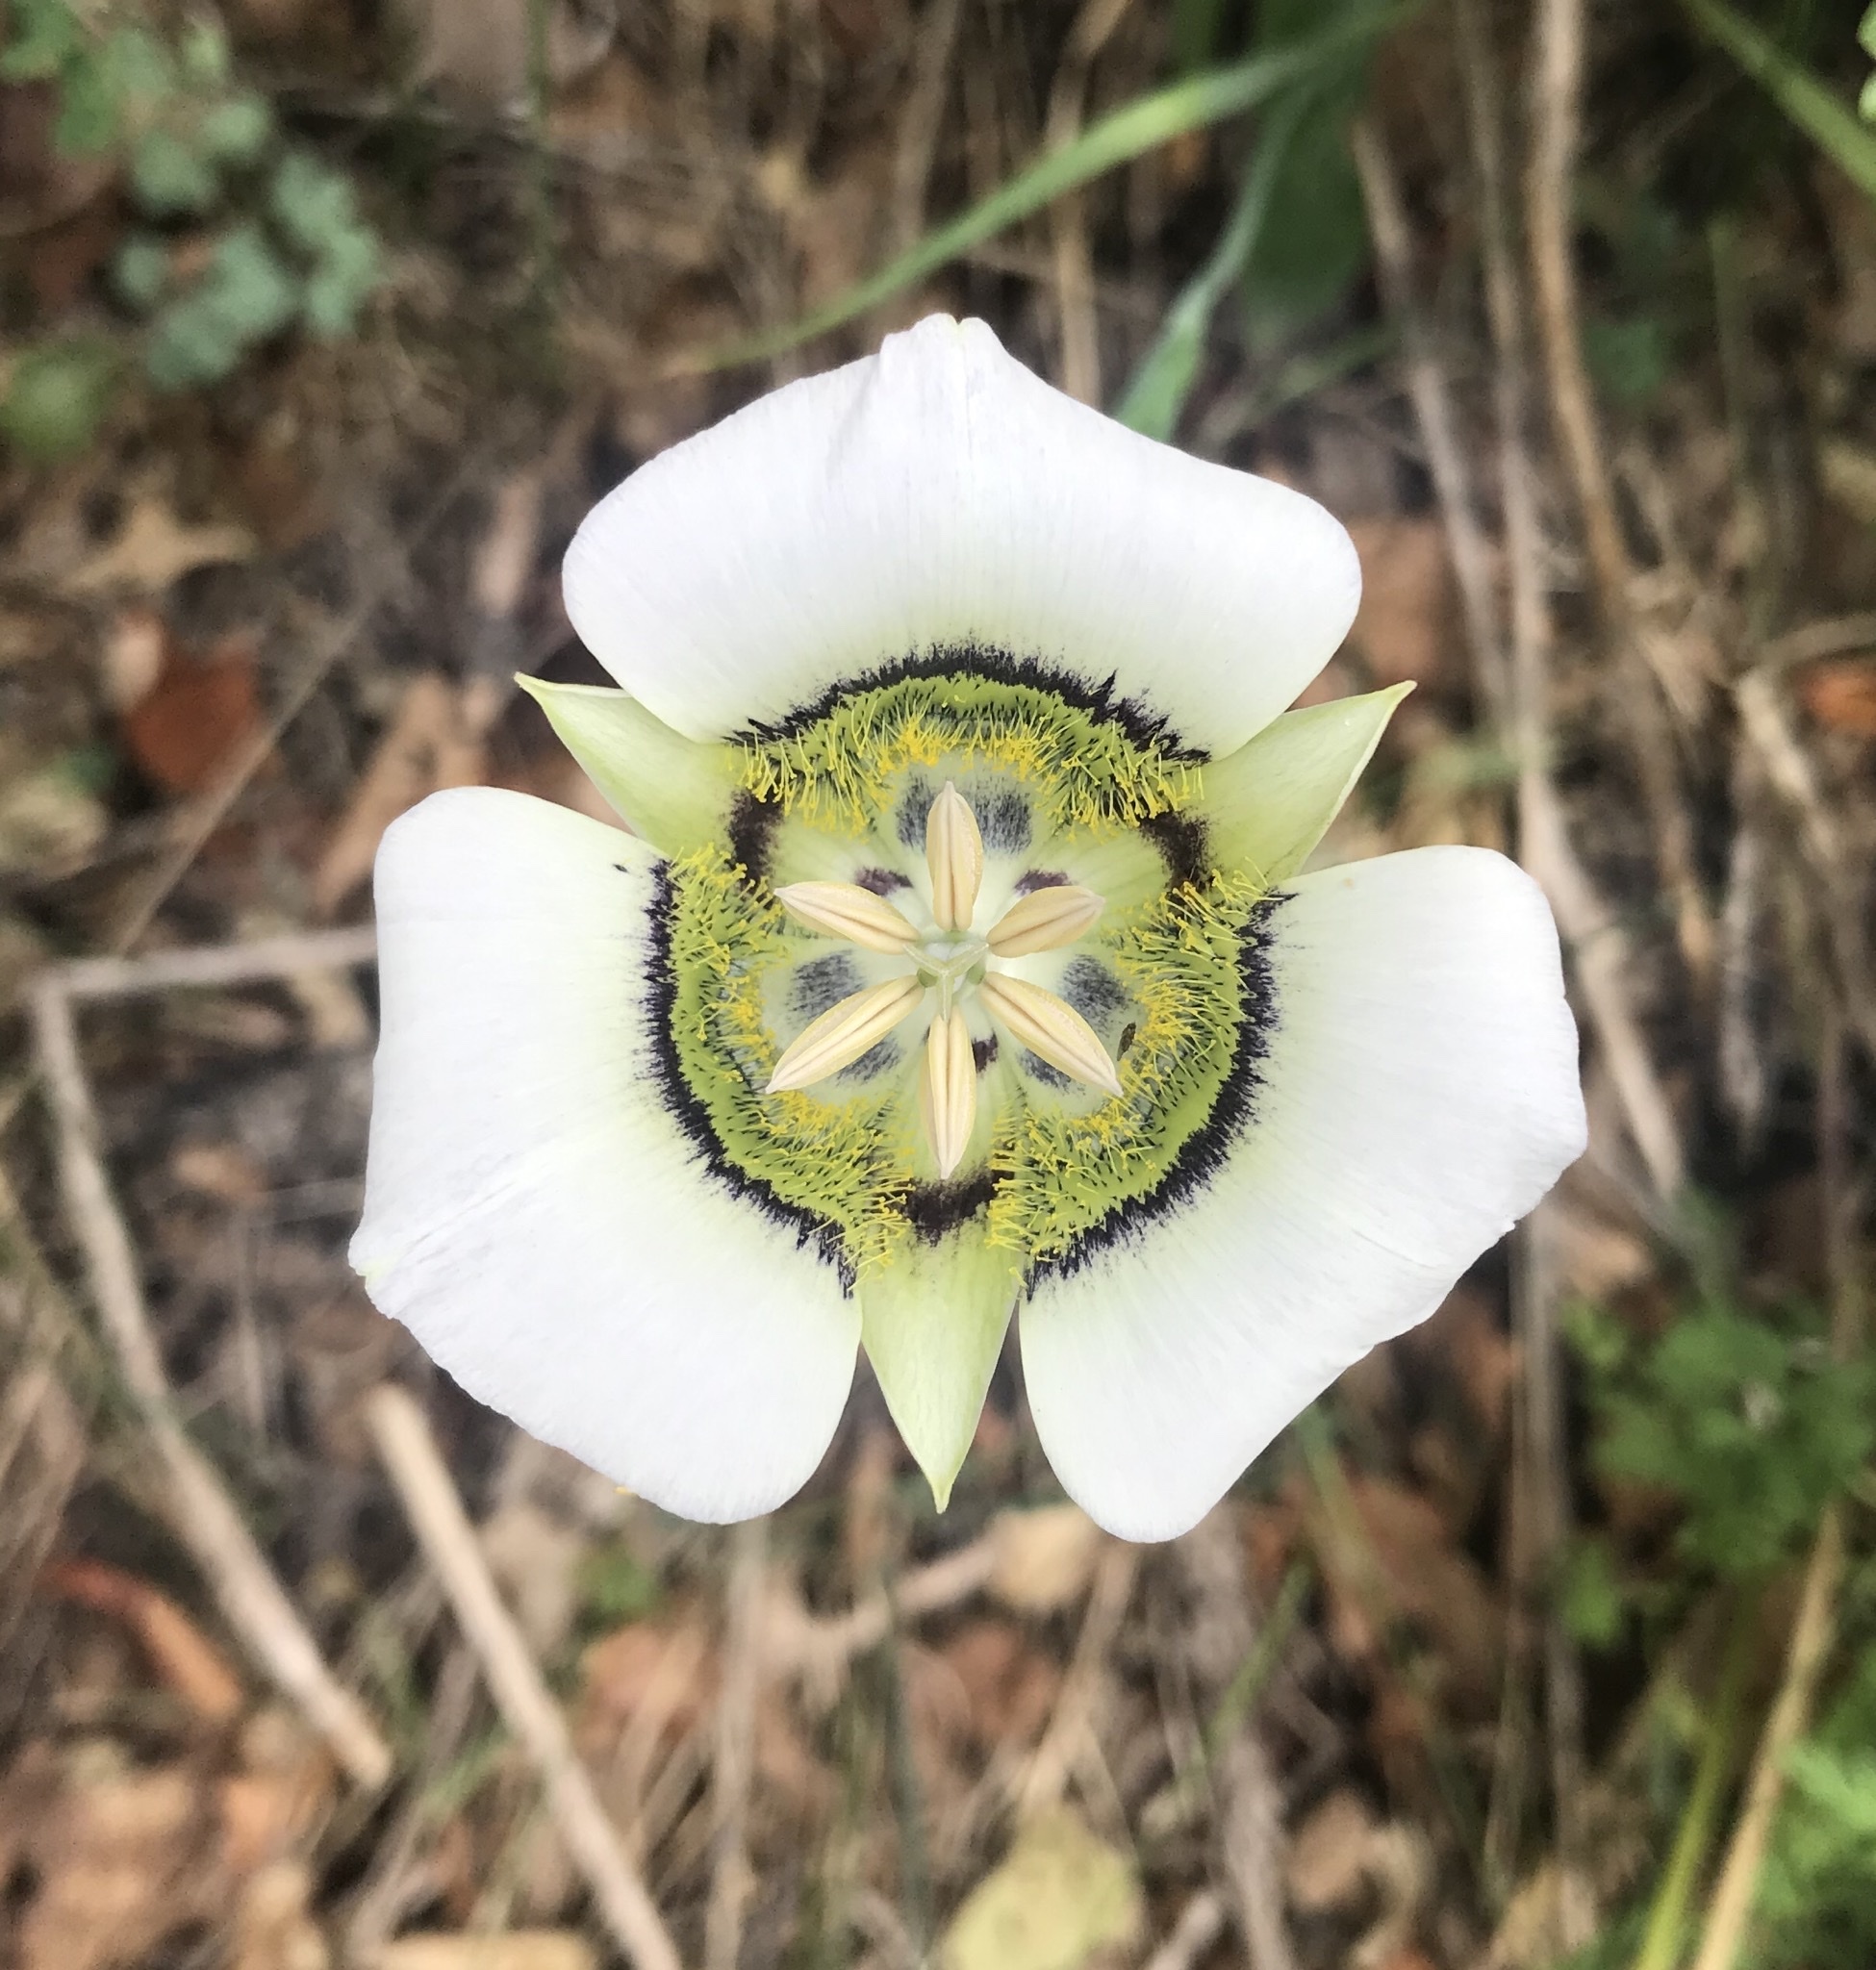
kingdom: Plantae
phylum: Tracheophyta
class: Liliopsida
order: Liliales
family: Liliaceae
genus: Calochortus
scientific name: Calochortus gunnisonii
